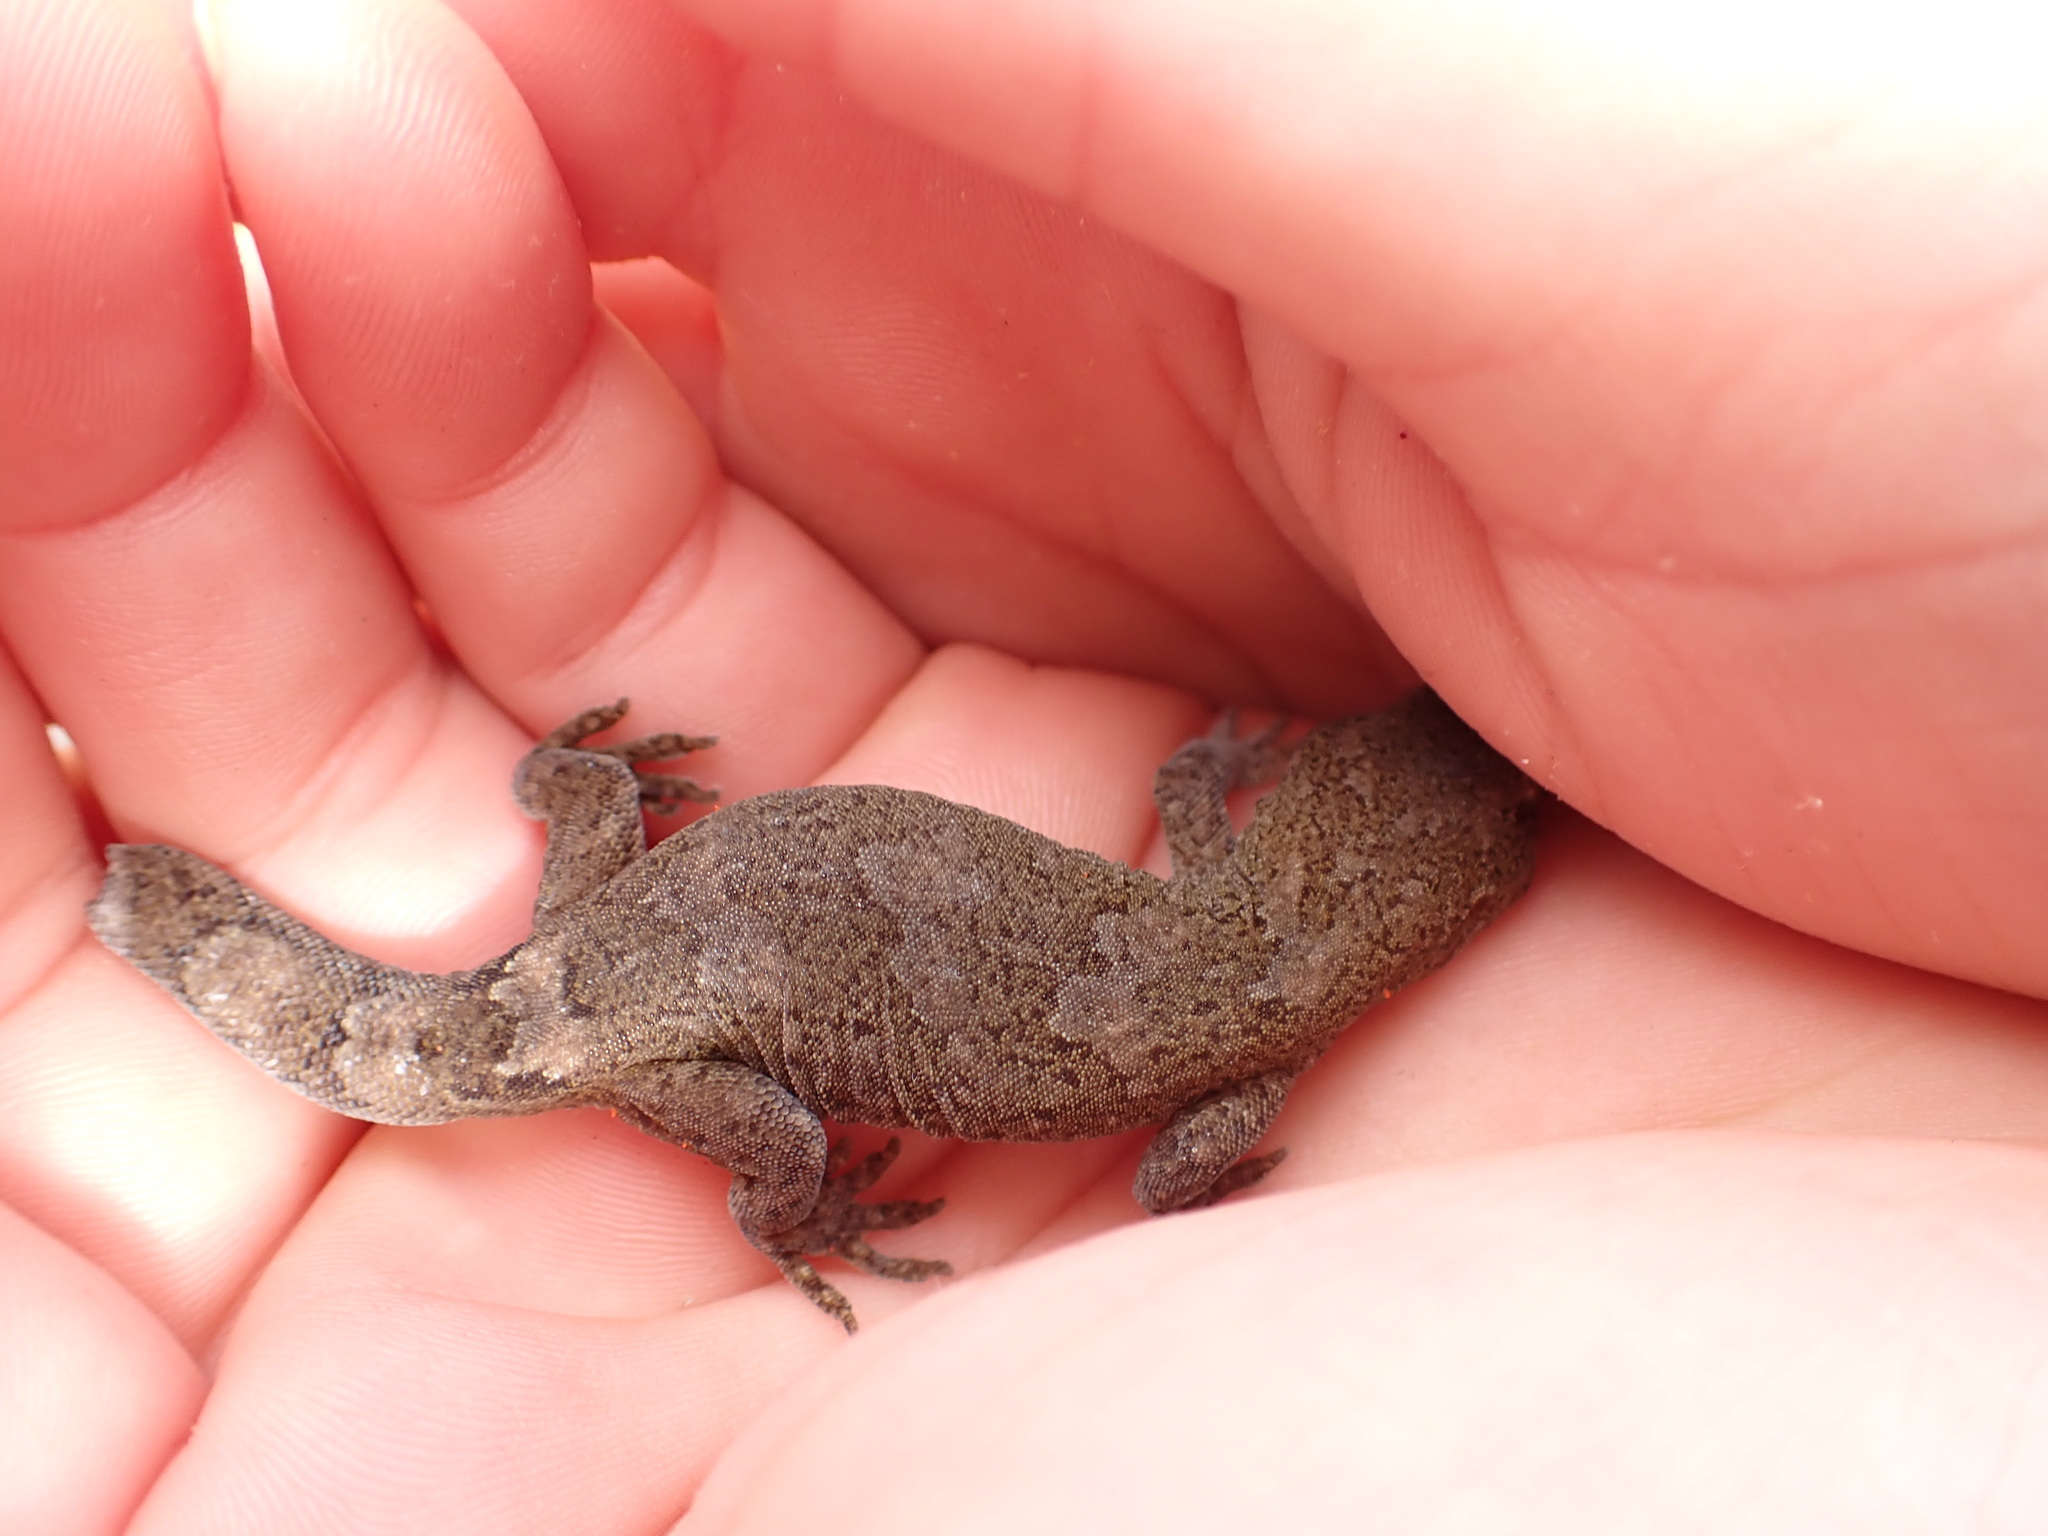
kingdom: Animalia
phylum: Chordata
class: Squamata
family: Diplodactylidae
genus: Woodworthia
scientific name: Woodworthia
